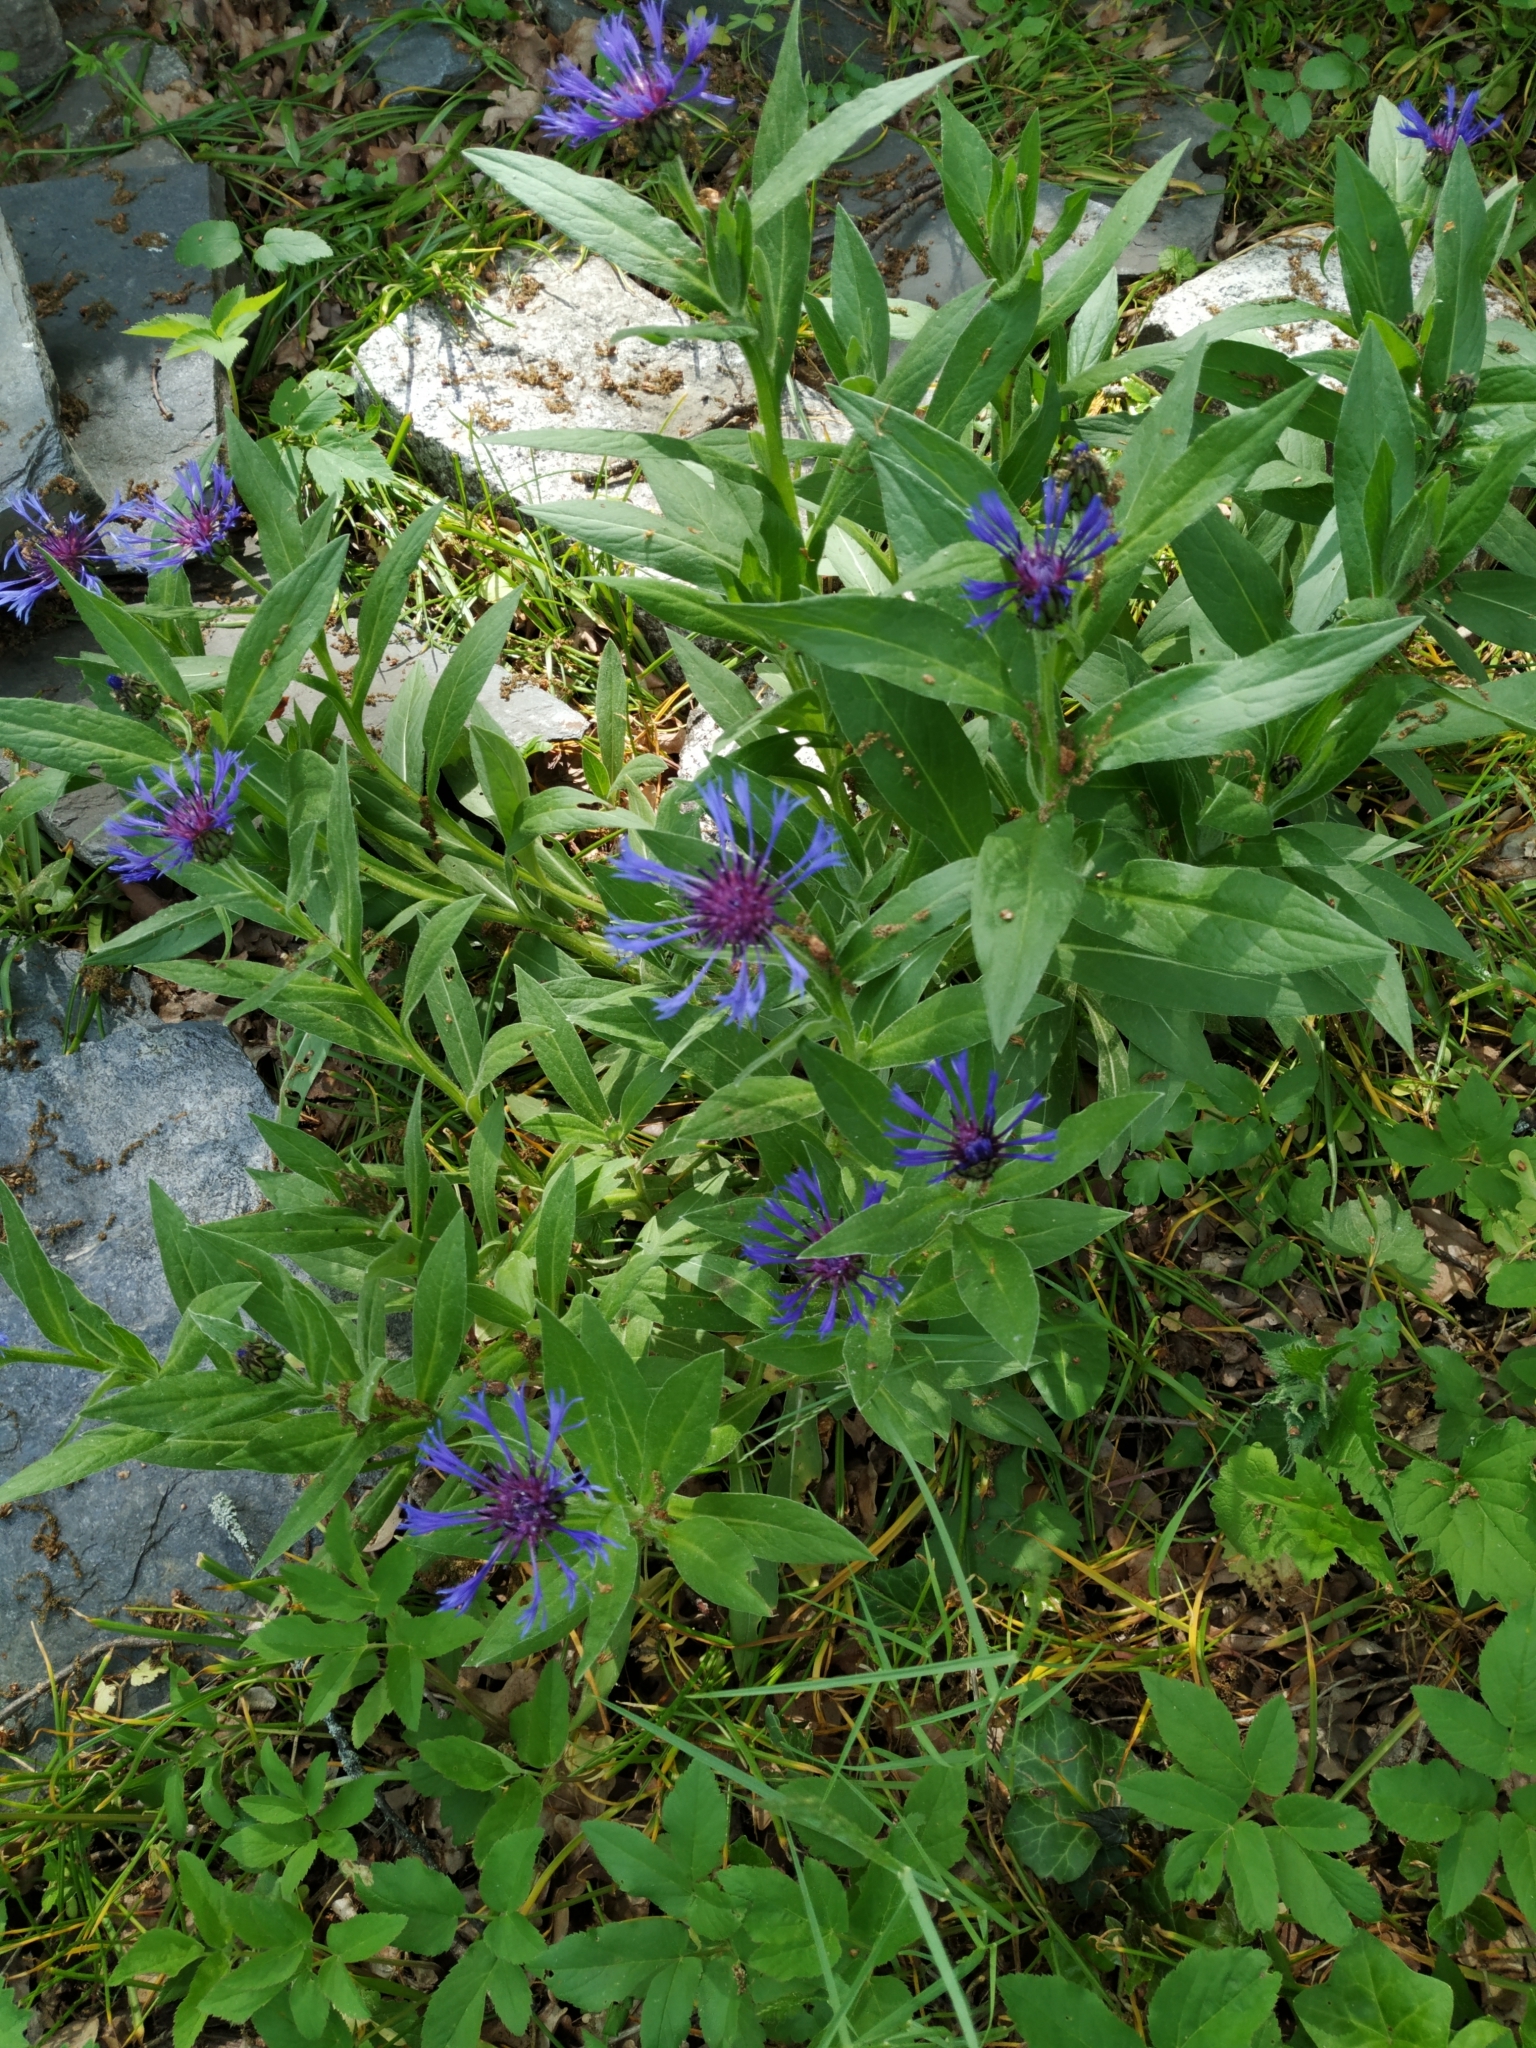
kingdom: Plantae
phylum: Tracheophyta
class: Magnoliopsida
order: Asterales
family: Asteraceae
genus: Centaurea
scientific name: Centaurea montana
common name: Perennial cornflower
